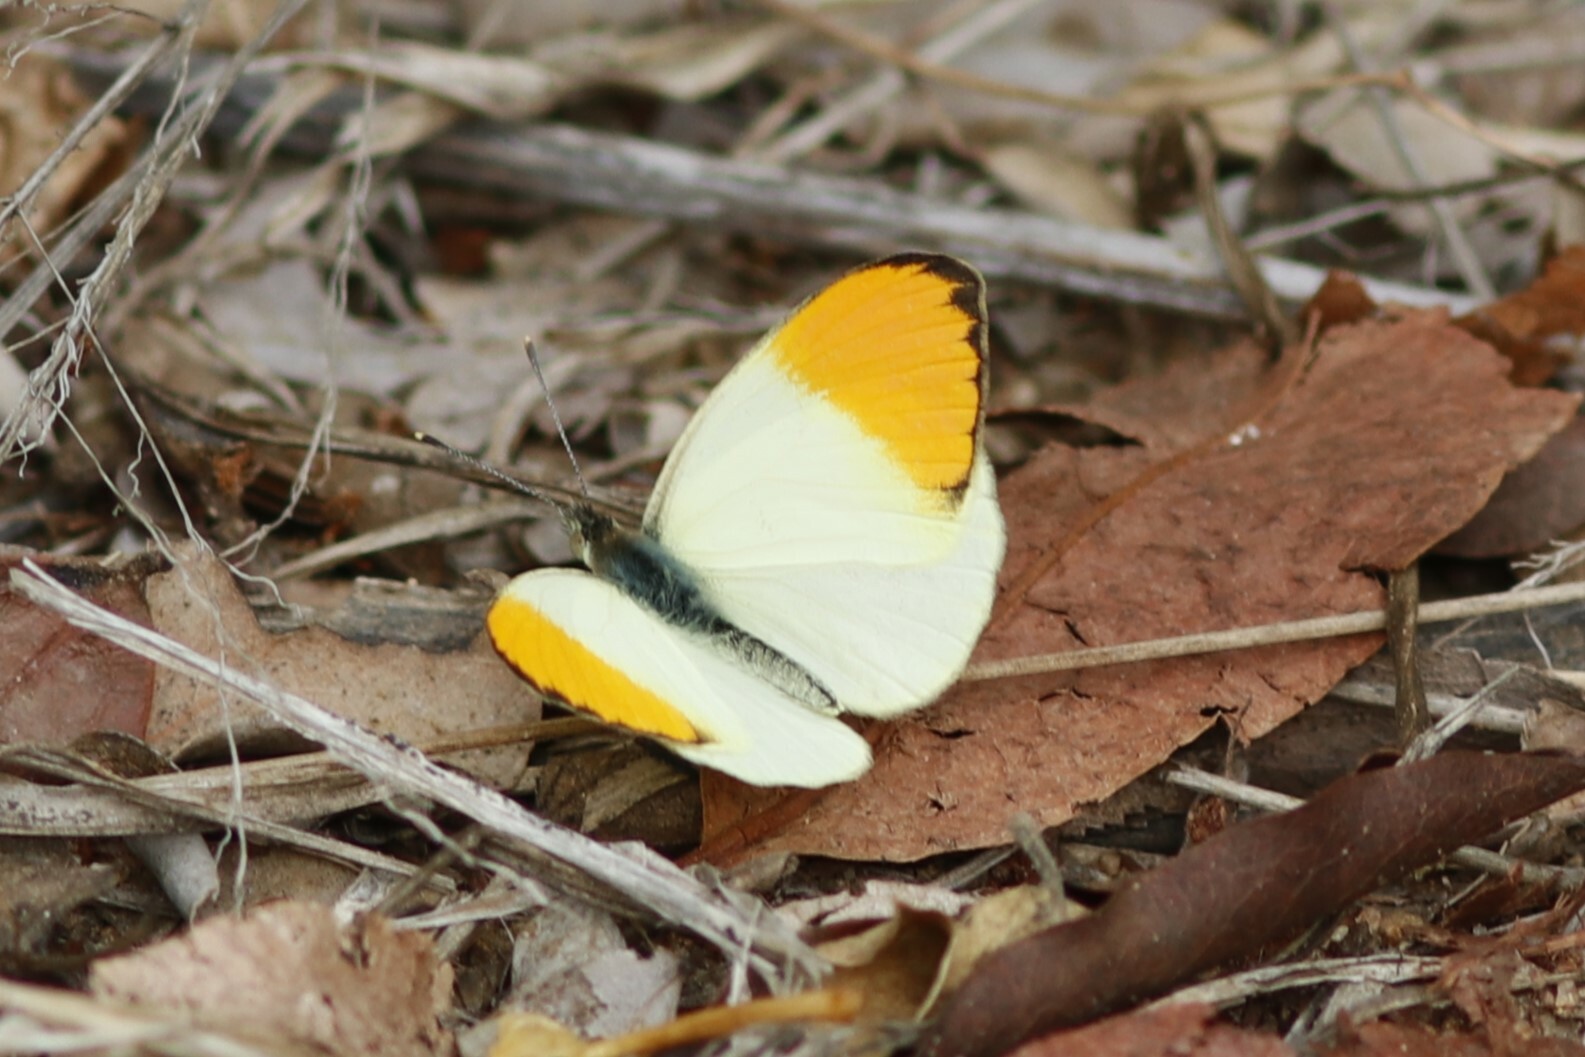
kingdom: Animalia
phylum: Arthropoda
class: Insecta
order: Lepidoptera
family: Pieridae
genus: Colotis
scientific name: Colotis auxo
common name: Sulphur orange tip
